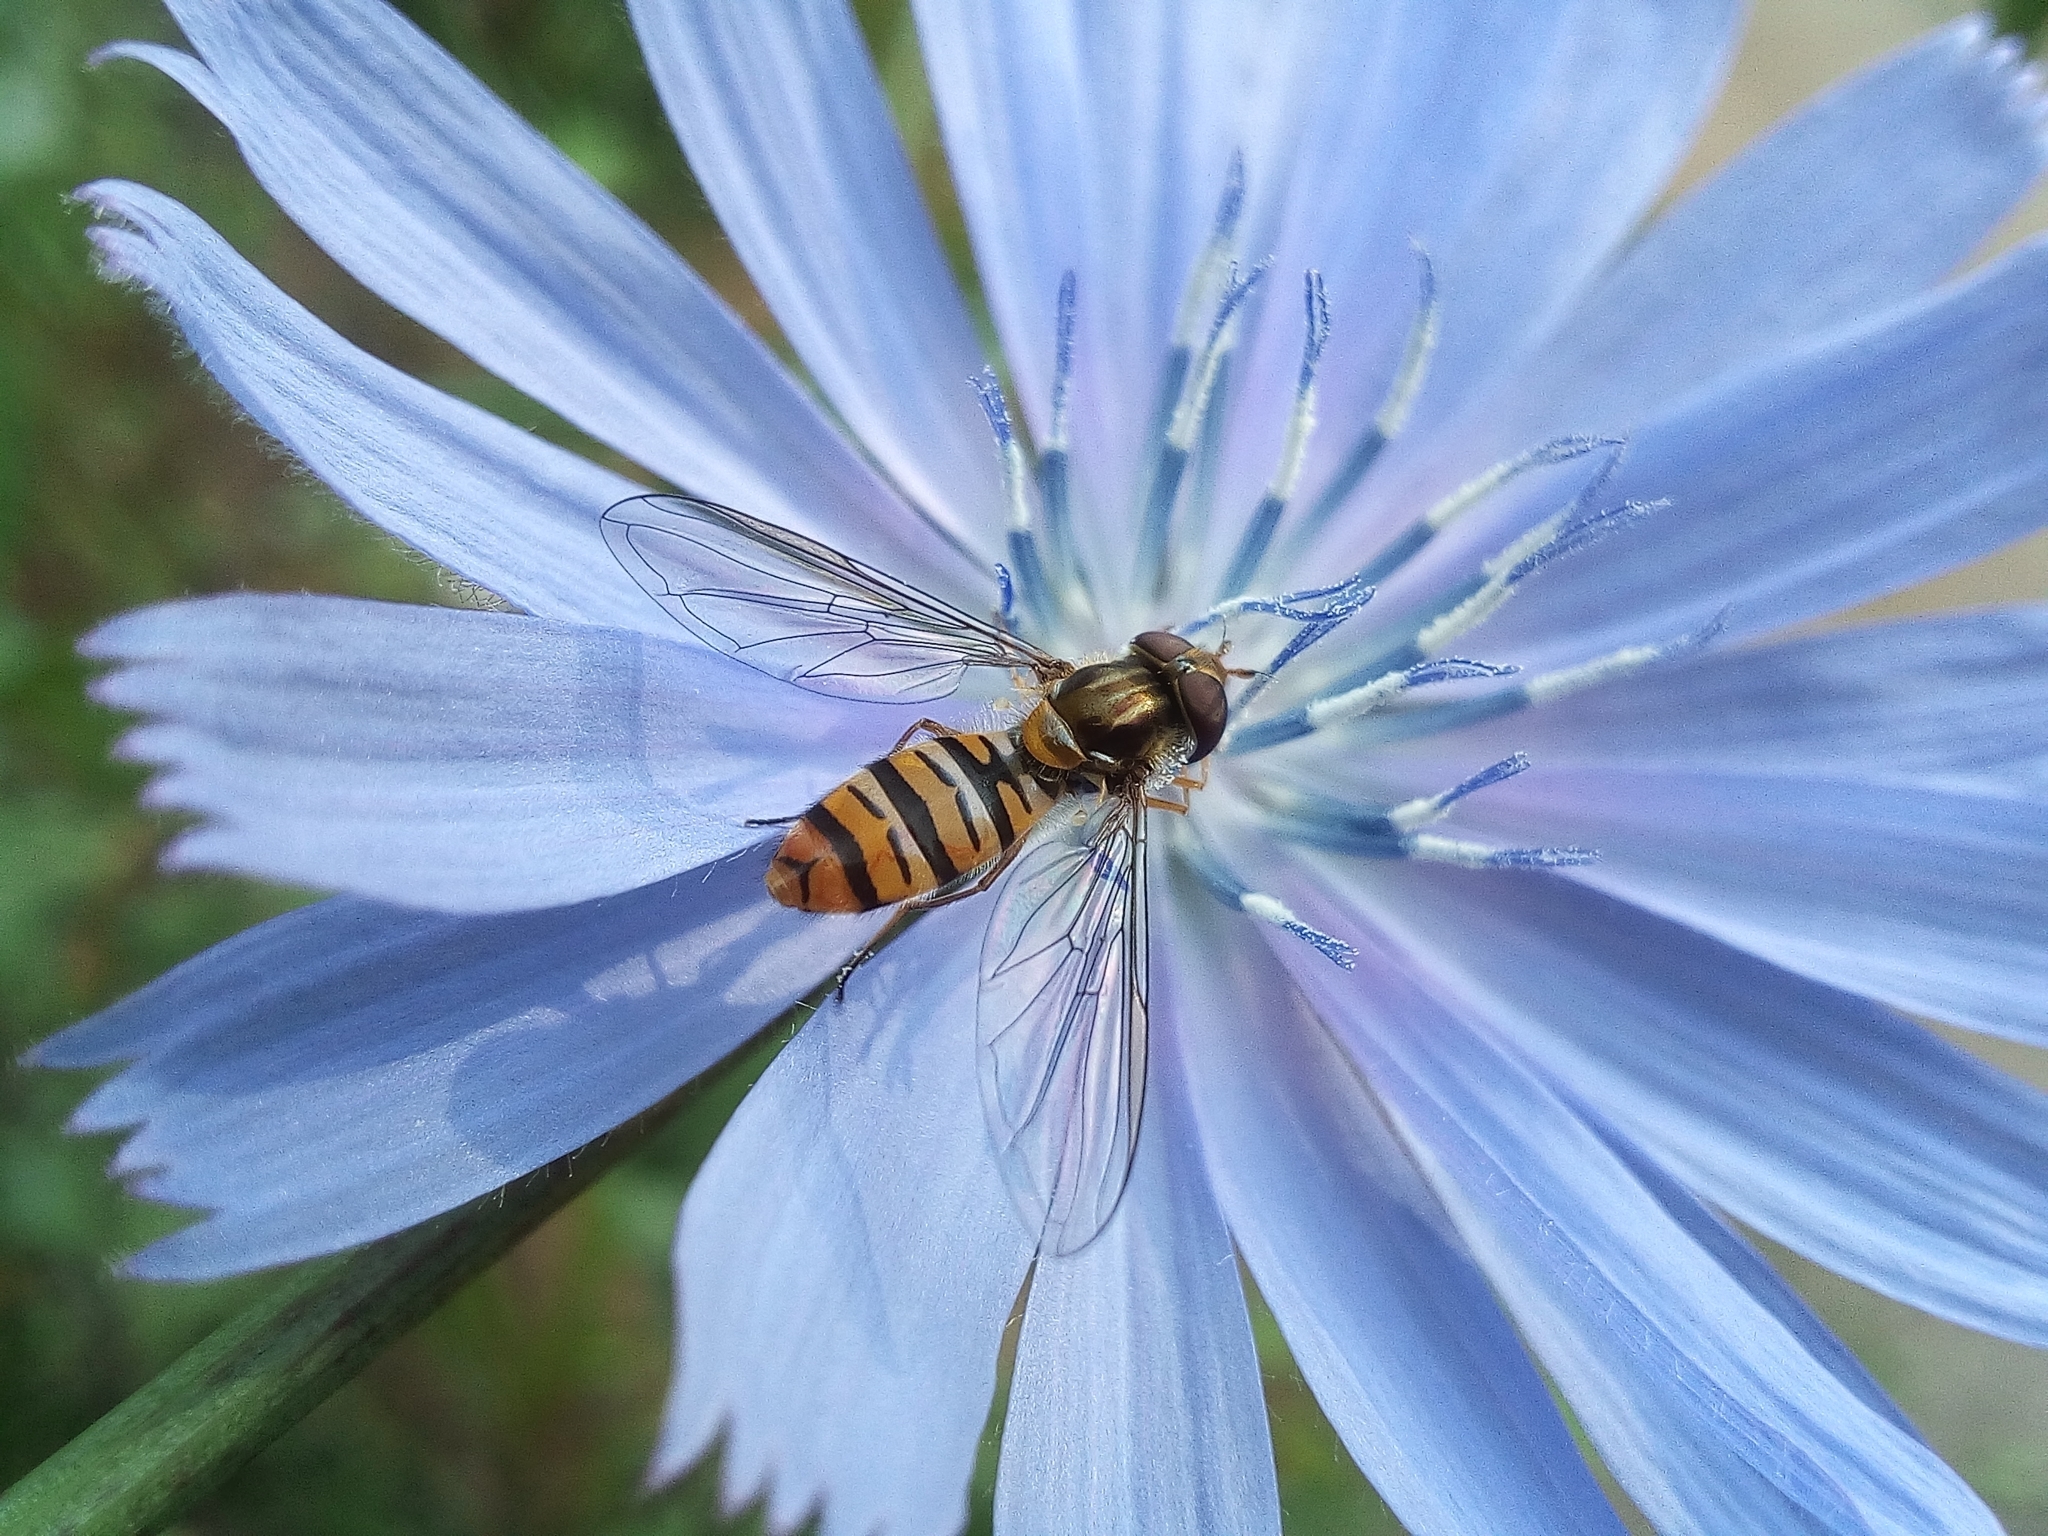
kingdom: Animalia
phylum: Arthropoda
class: Insecta
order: Diptera
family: Syrphidae
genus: Episyrphus
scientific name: Episyrphus balteatus
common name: Marmalade hoverfly
